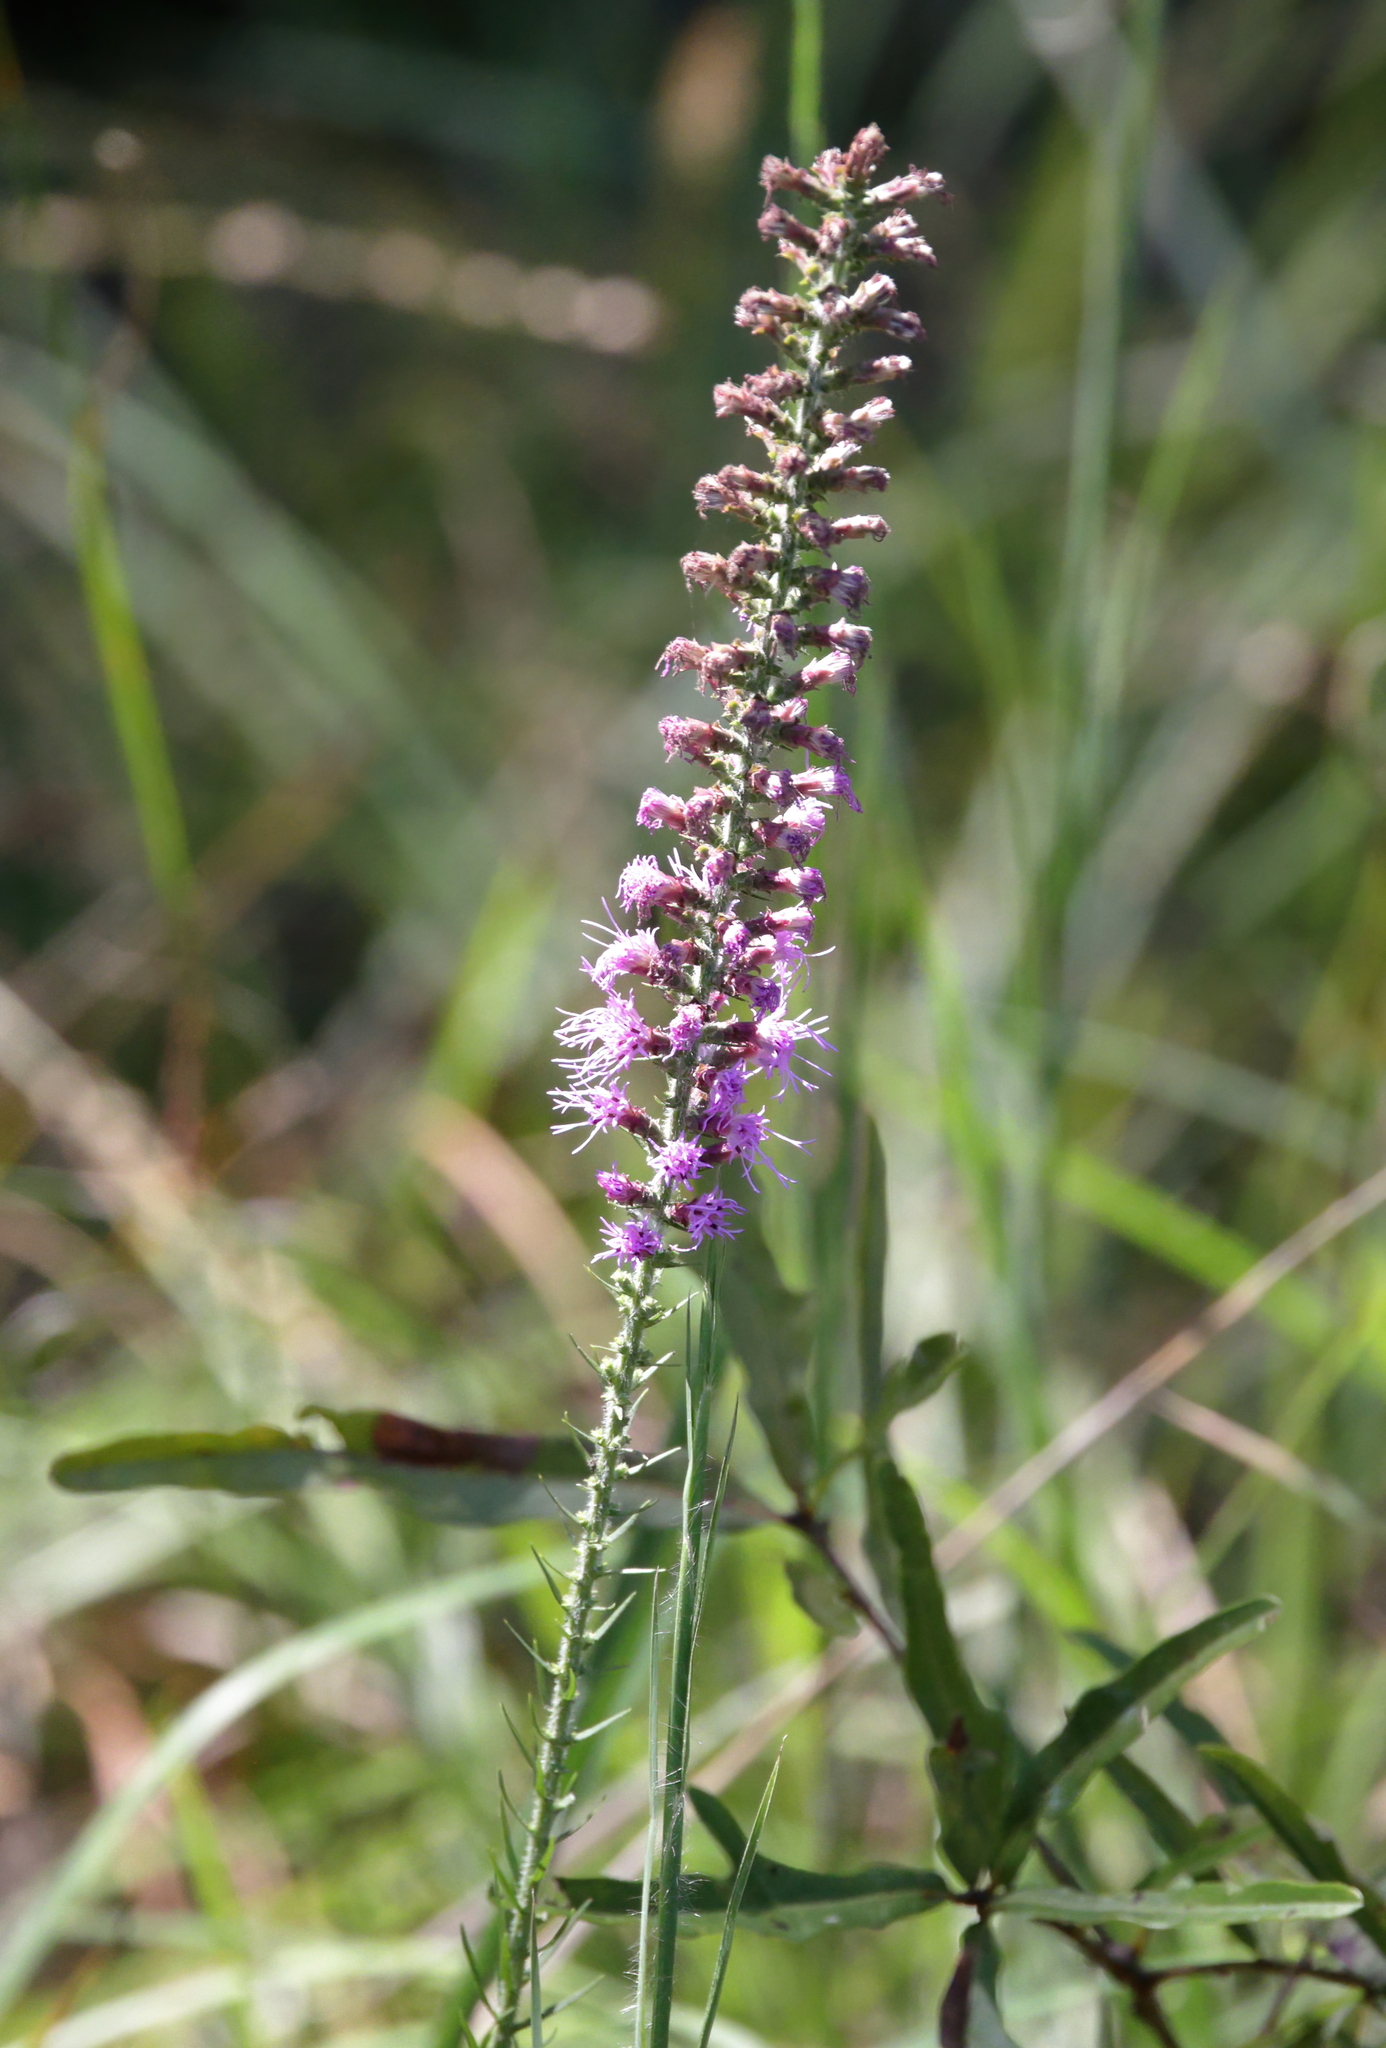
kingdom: Plantae
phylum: Tracheophyta
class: Magnoliopsida
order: Asterales
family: Asteraceae
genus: Liatris
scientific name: Liatris pycnostachya
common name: Cattail gayfeather
